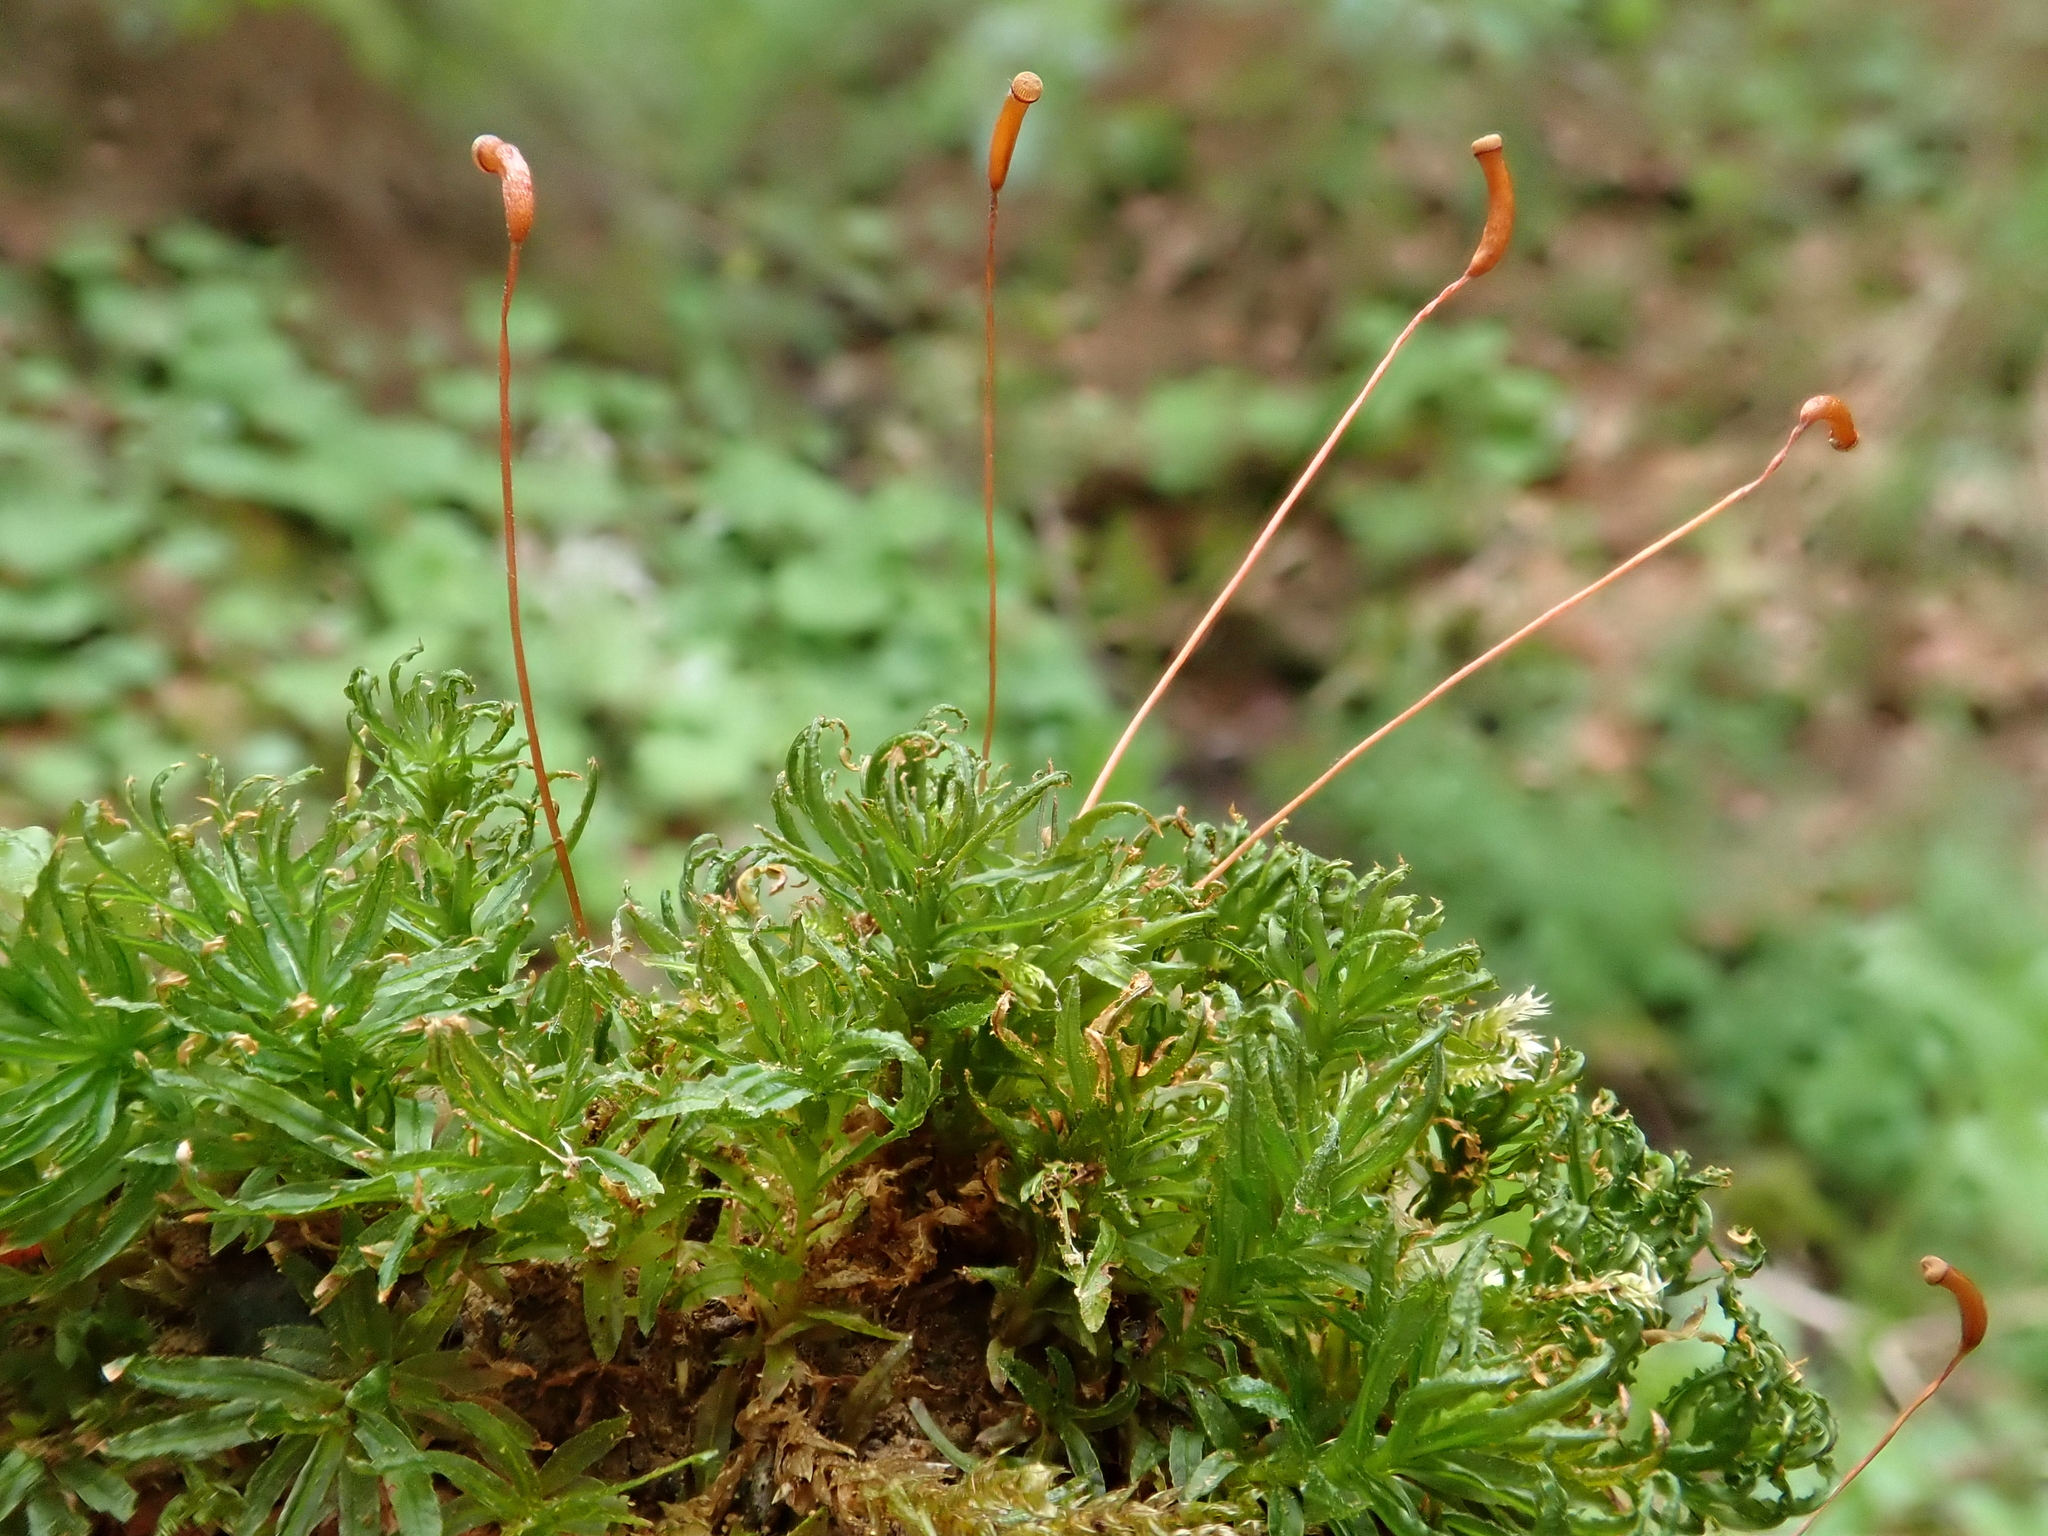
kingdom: Plantae
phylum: Bryophyta
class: Polytrichopsida
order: Polytrichales
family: Polytrichaceae
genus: Atrichum
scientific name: Atrichum undulatum
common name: Common smoothcap
